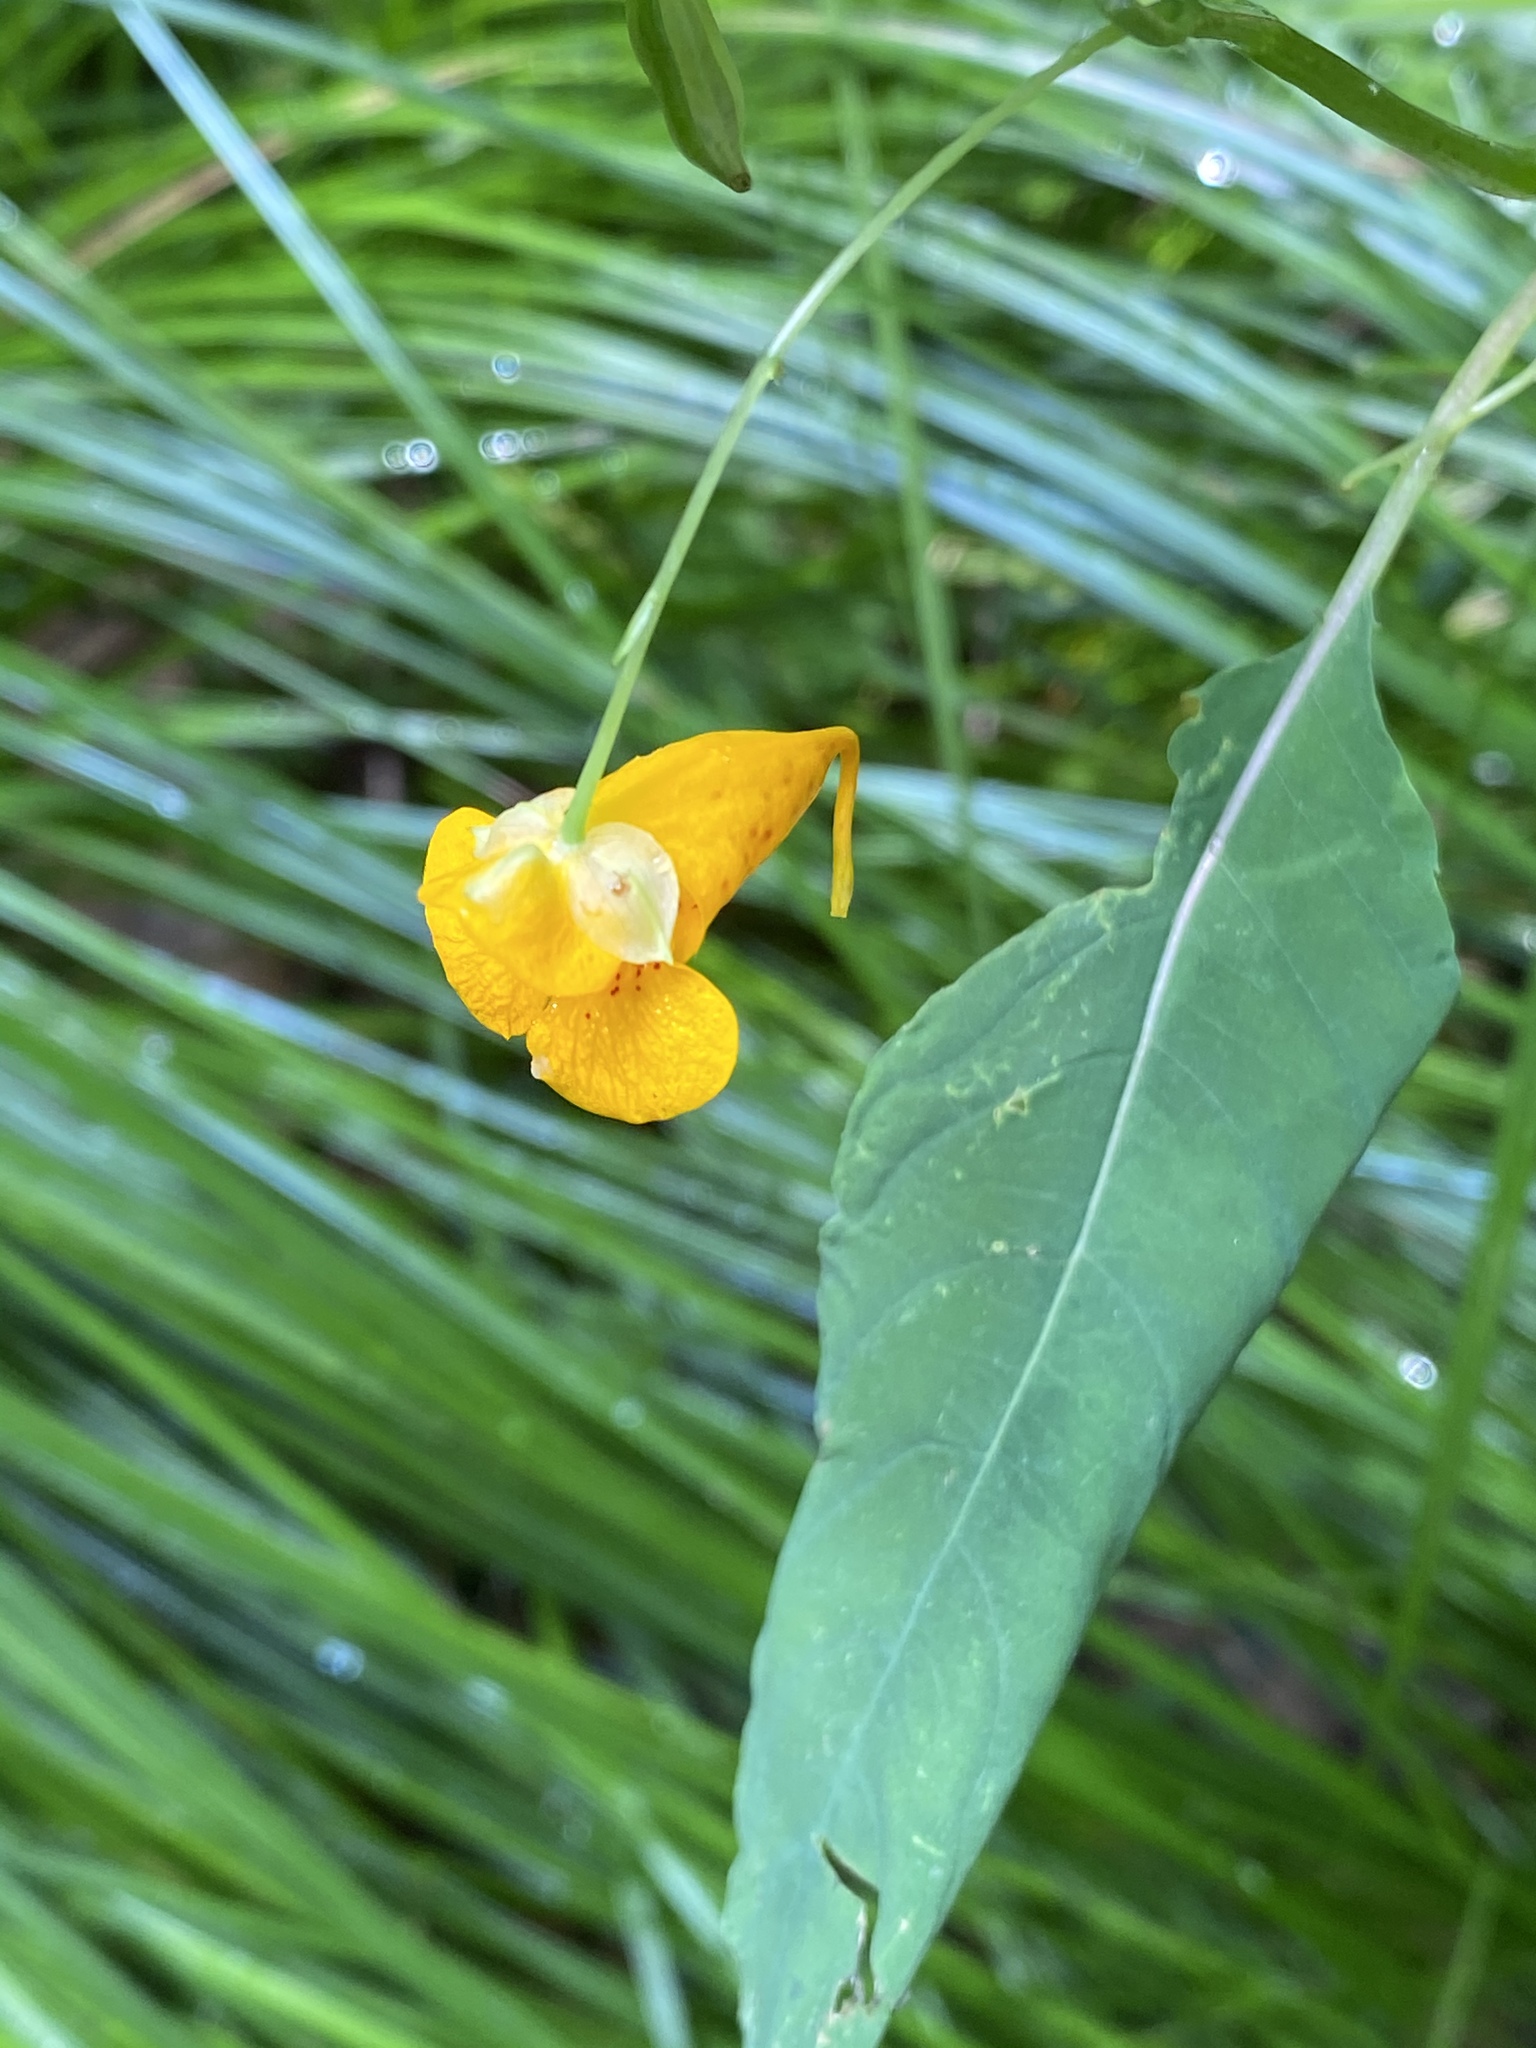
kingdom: Plantae
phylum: Tracheophyta
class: Magnoliopsida
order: Ericales
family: Balsaminaceae
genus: Impatiens
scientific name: Impatiens capensis
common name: Orange balsam
